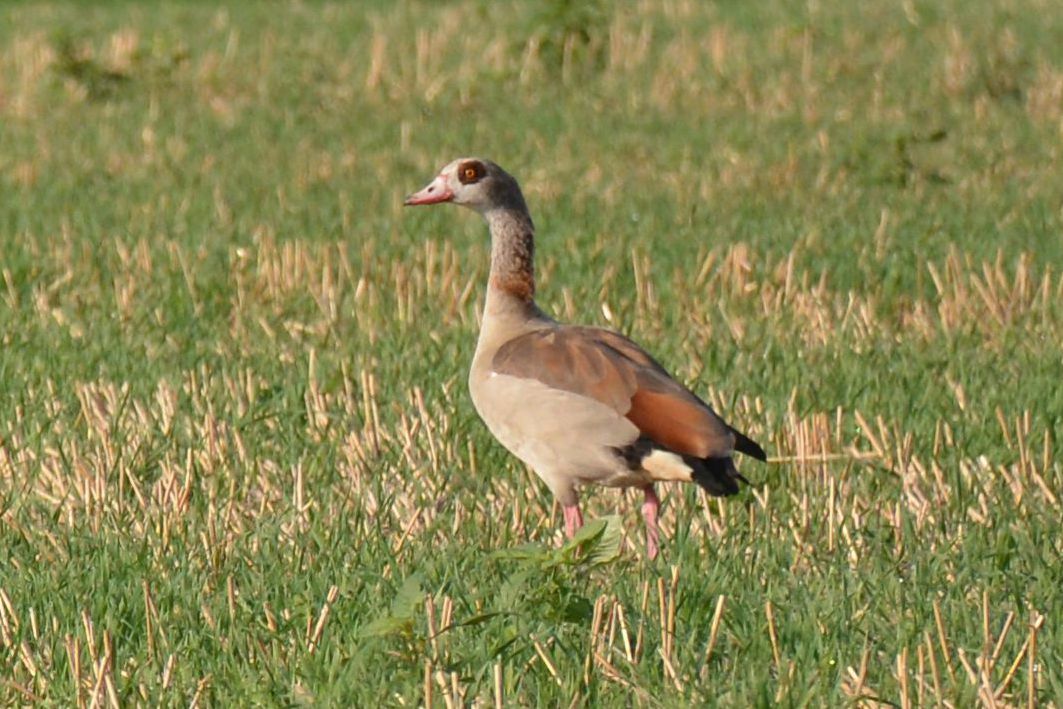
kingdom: Animalia
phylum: Chordata
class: Aves
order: Anseriformes
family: Anatidae
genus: Alopochen
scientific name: Alopochen aegyptiaca
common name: Egyptian goose
